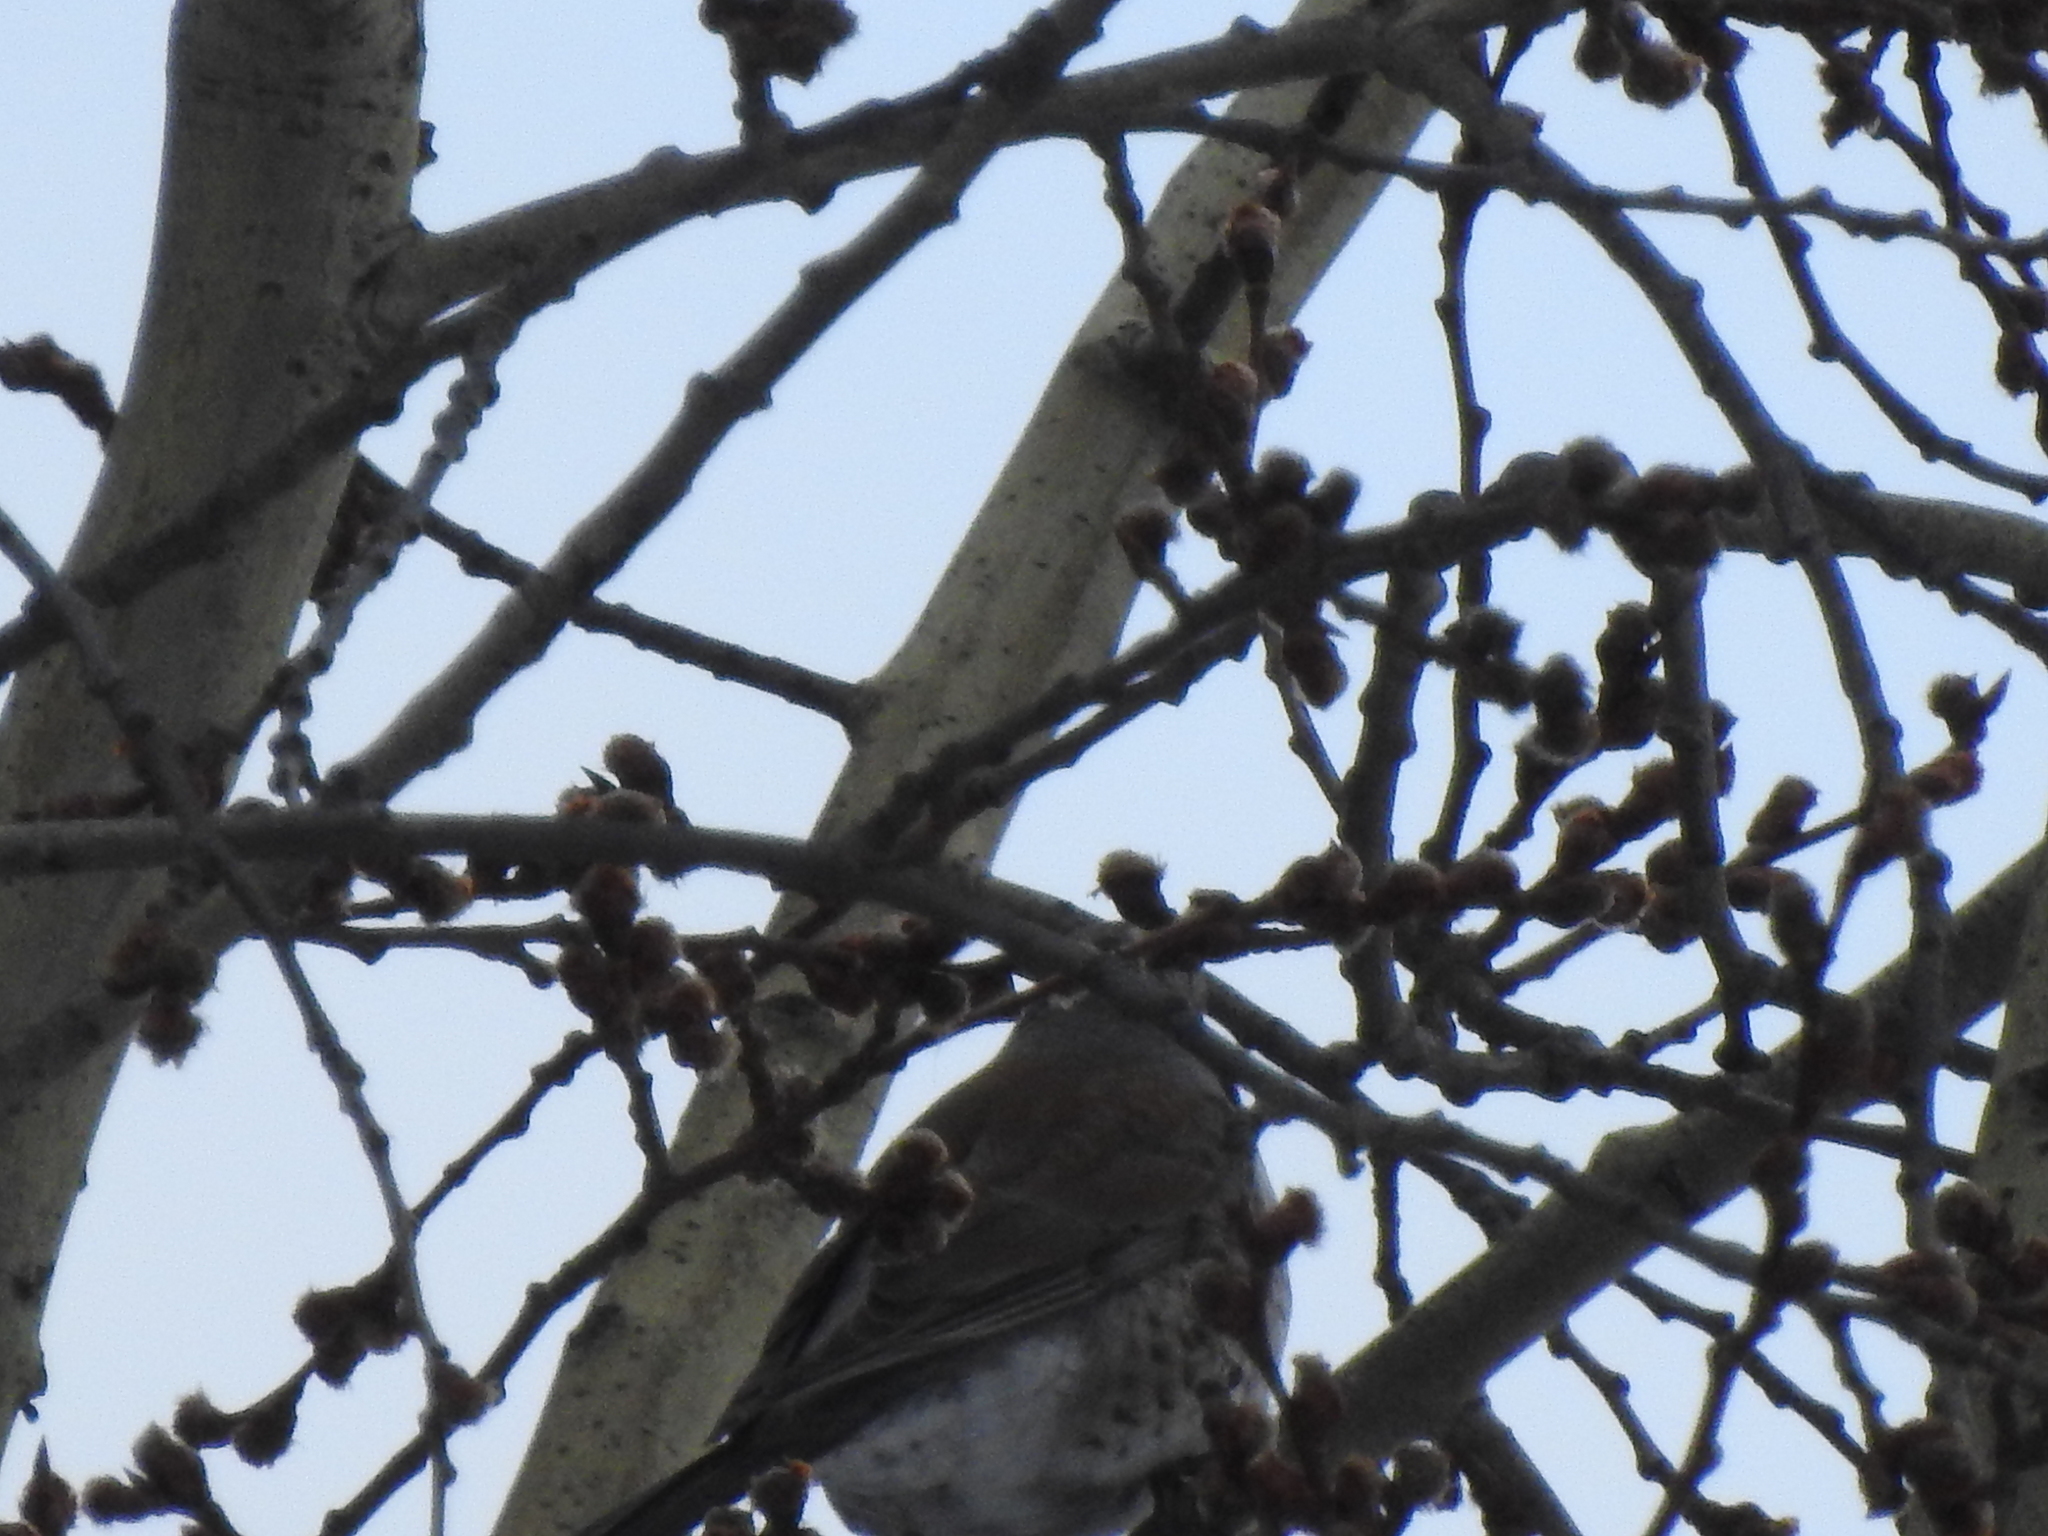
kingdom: Animalia
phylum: Chordata
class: Aves
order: Passeriformes
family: Turdidae
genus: Turdus
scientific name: Turdus pilaris
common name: Fieldfare
